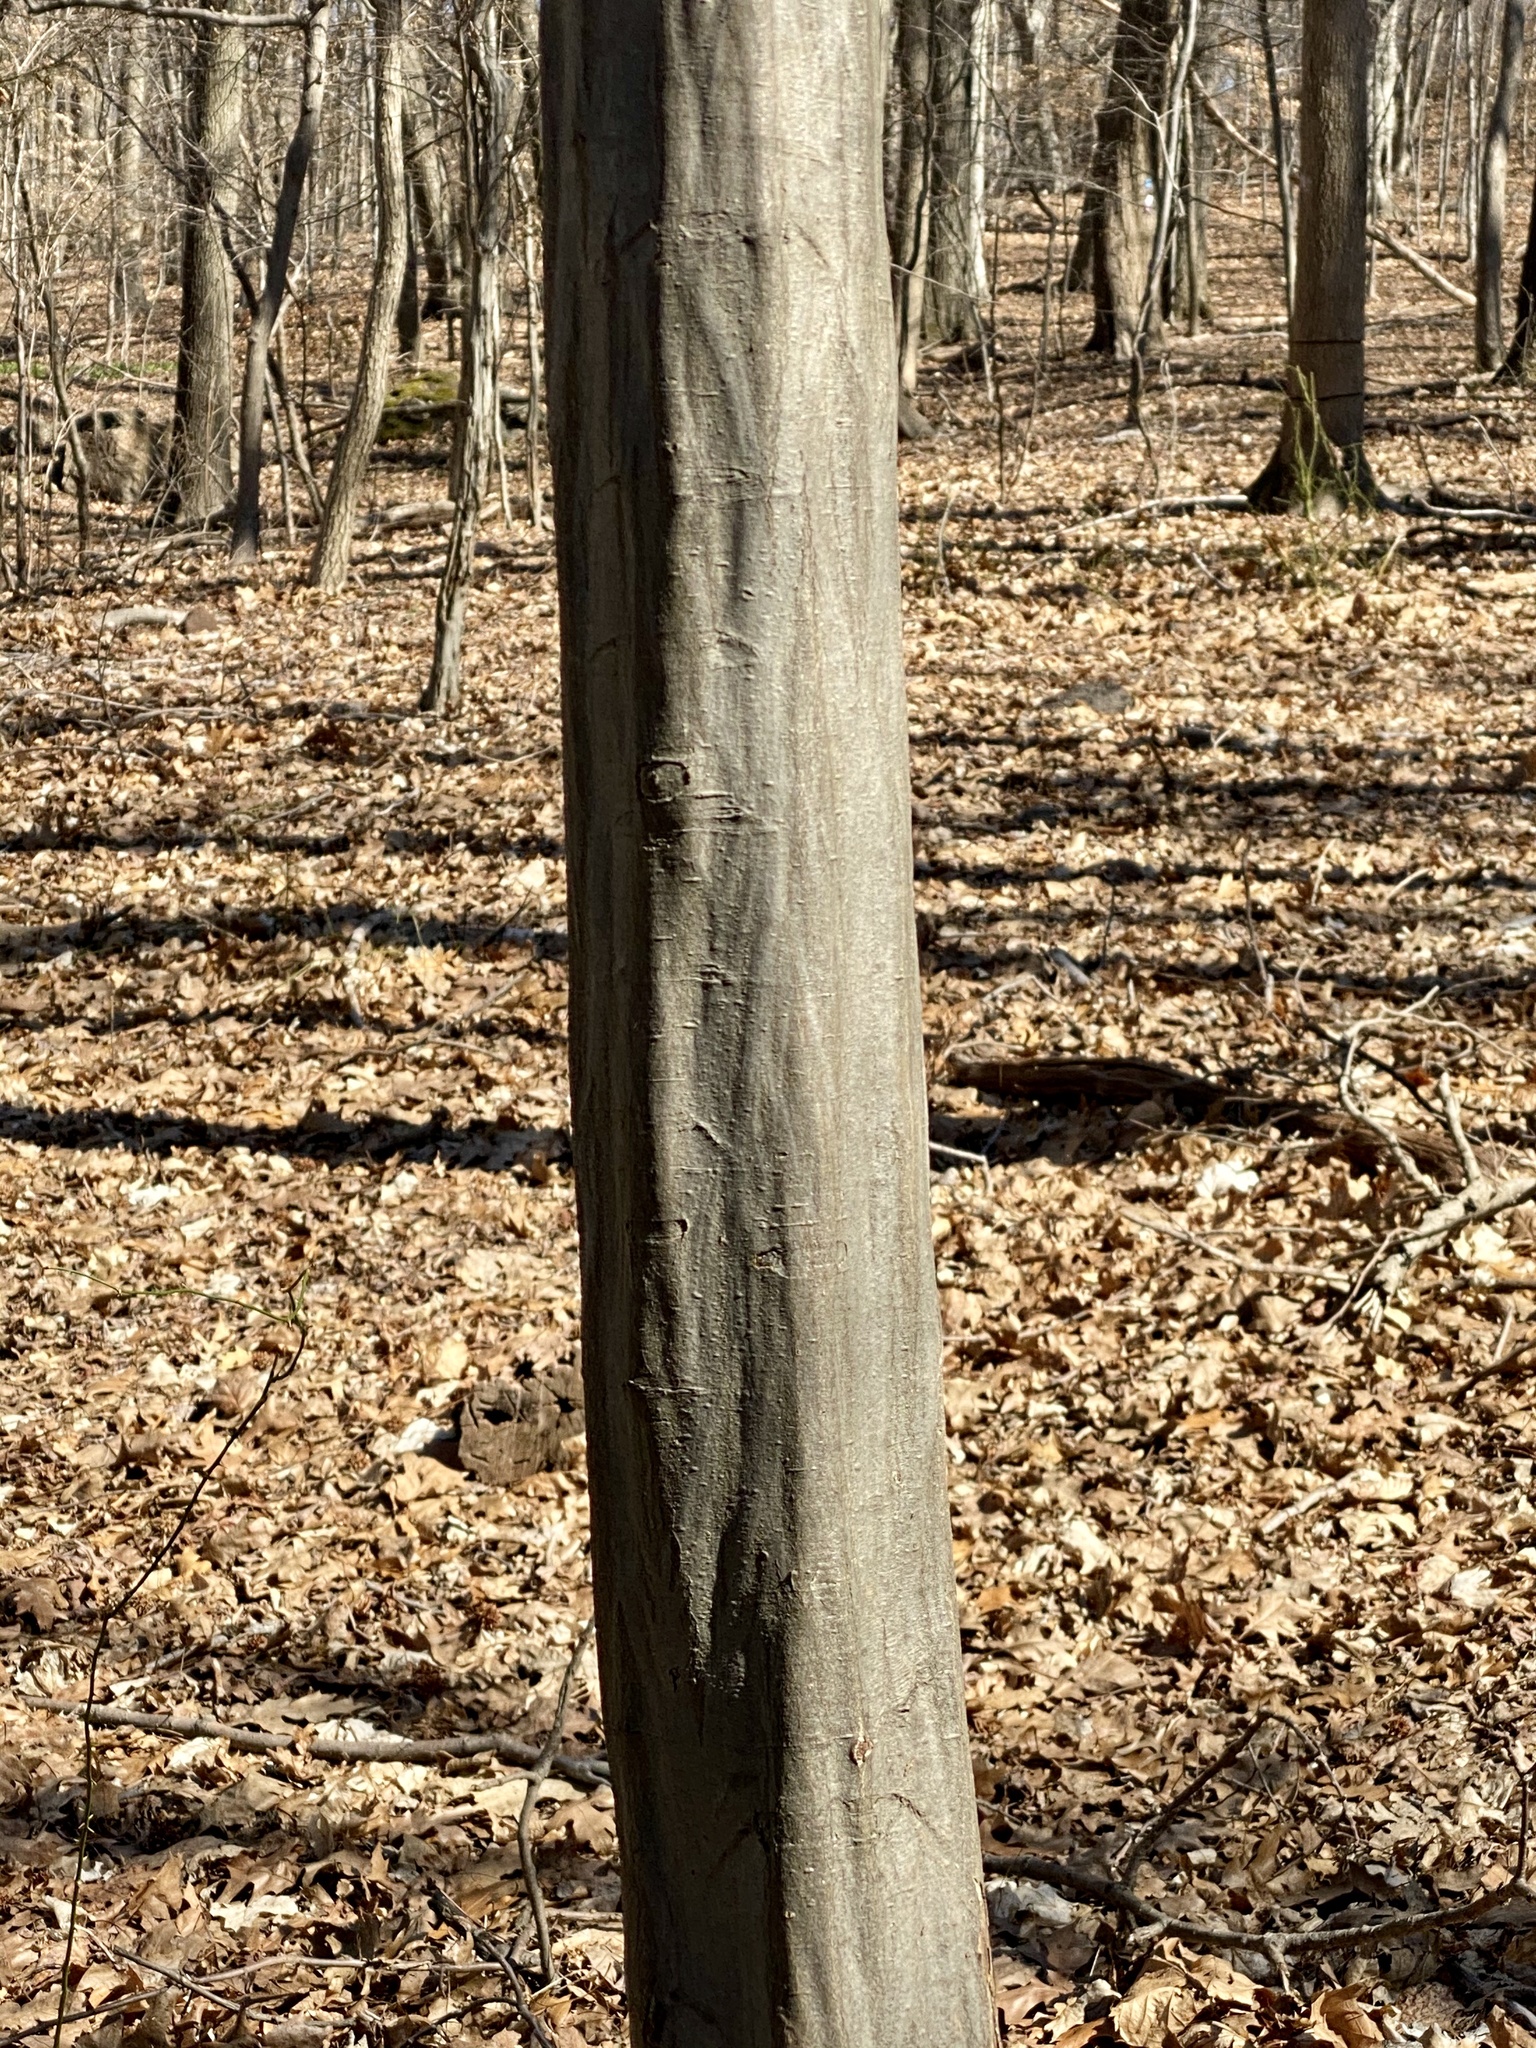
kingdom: Plantae
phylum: Tracheophyta
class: Magnoliopsida
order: Fagales
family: Betulaceae
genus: Carpinus
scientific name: Carpinus caroliniana
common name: American hornbeam
